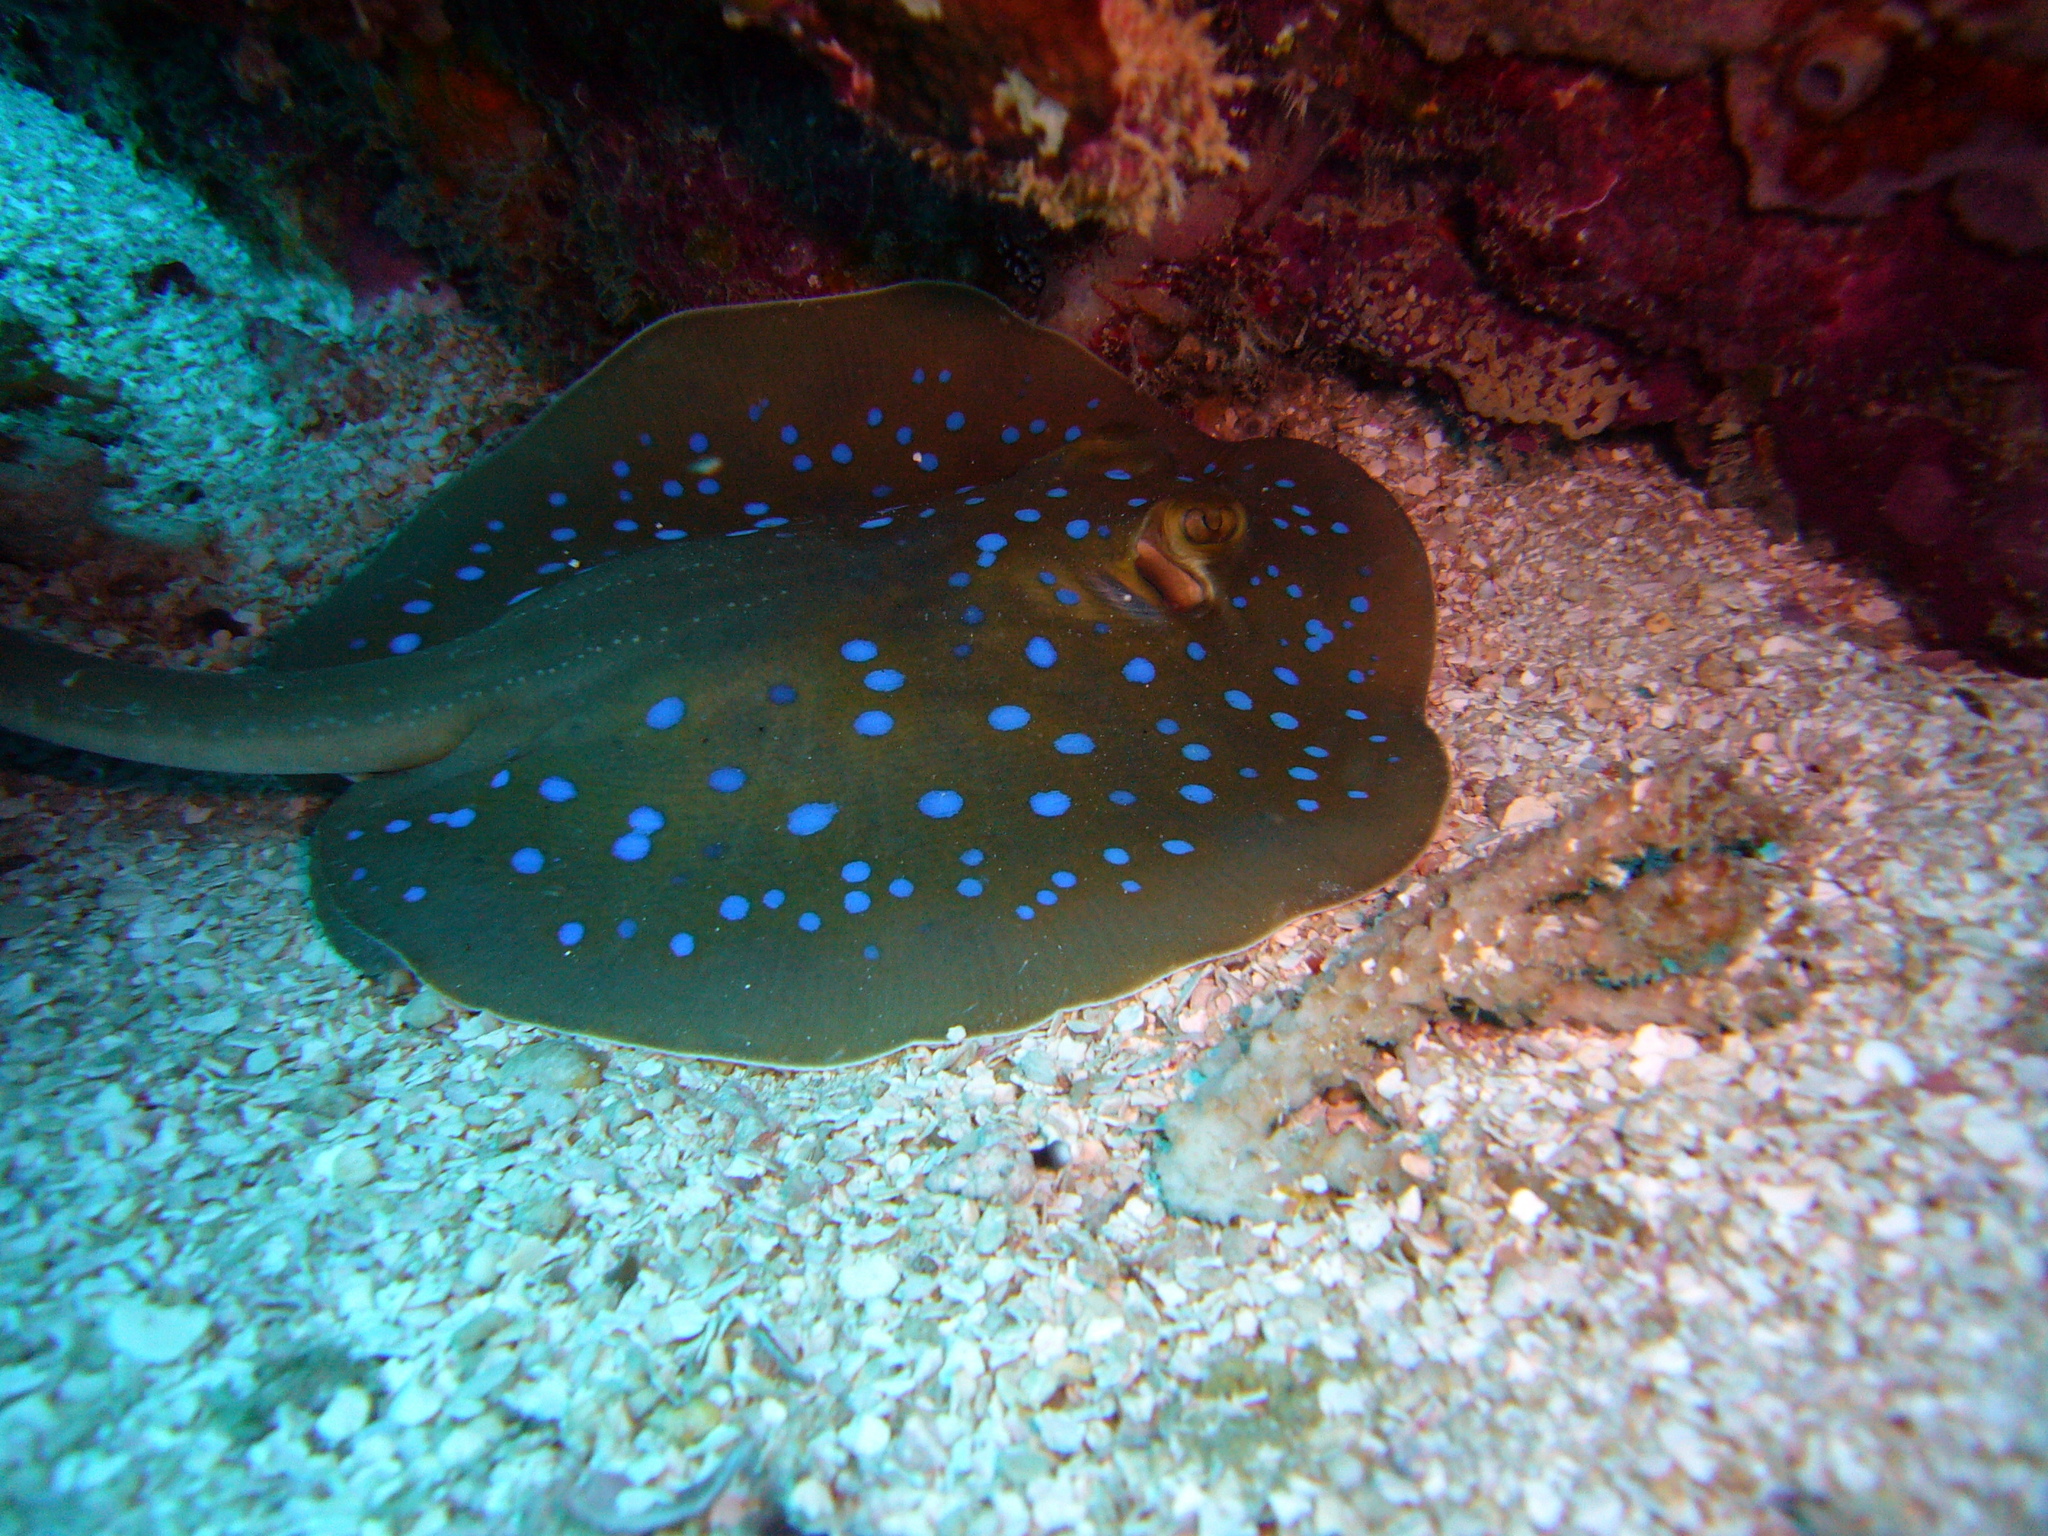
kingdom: Animalia
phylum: Chordata
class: Elasmobranchii
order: Myliobatiformes
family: Dasyatidae
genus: Taeniura
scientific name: Taeniura lessoni
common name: Oceania fantail ray
